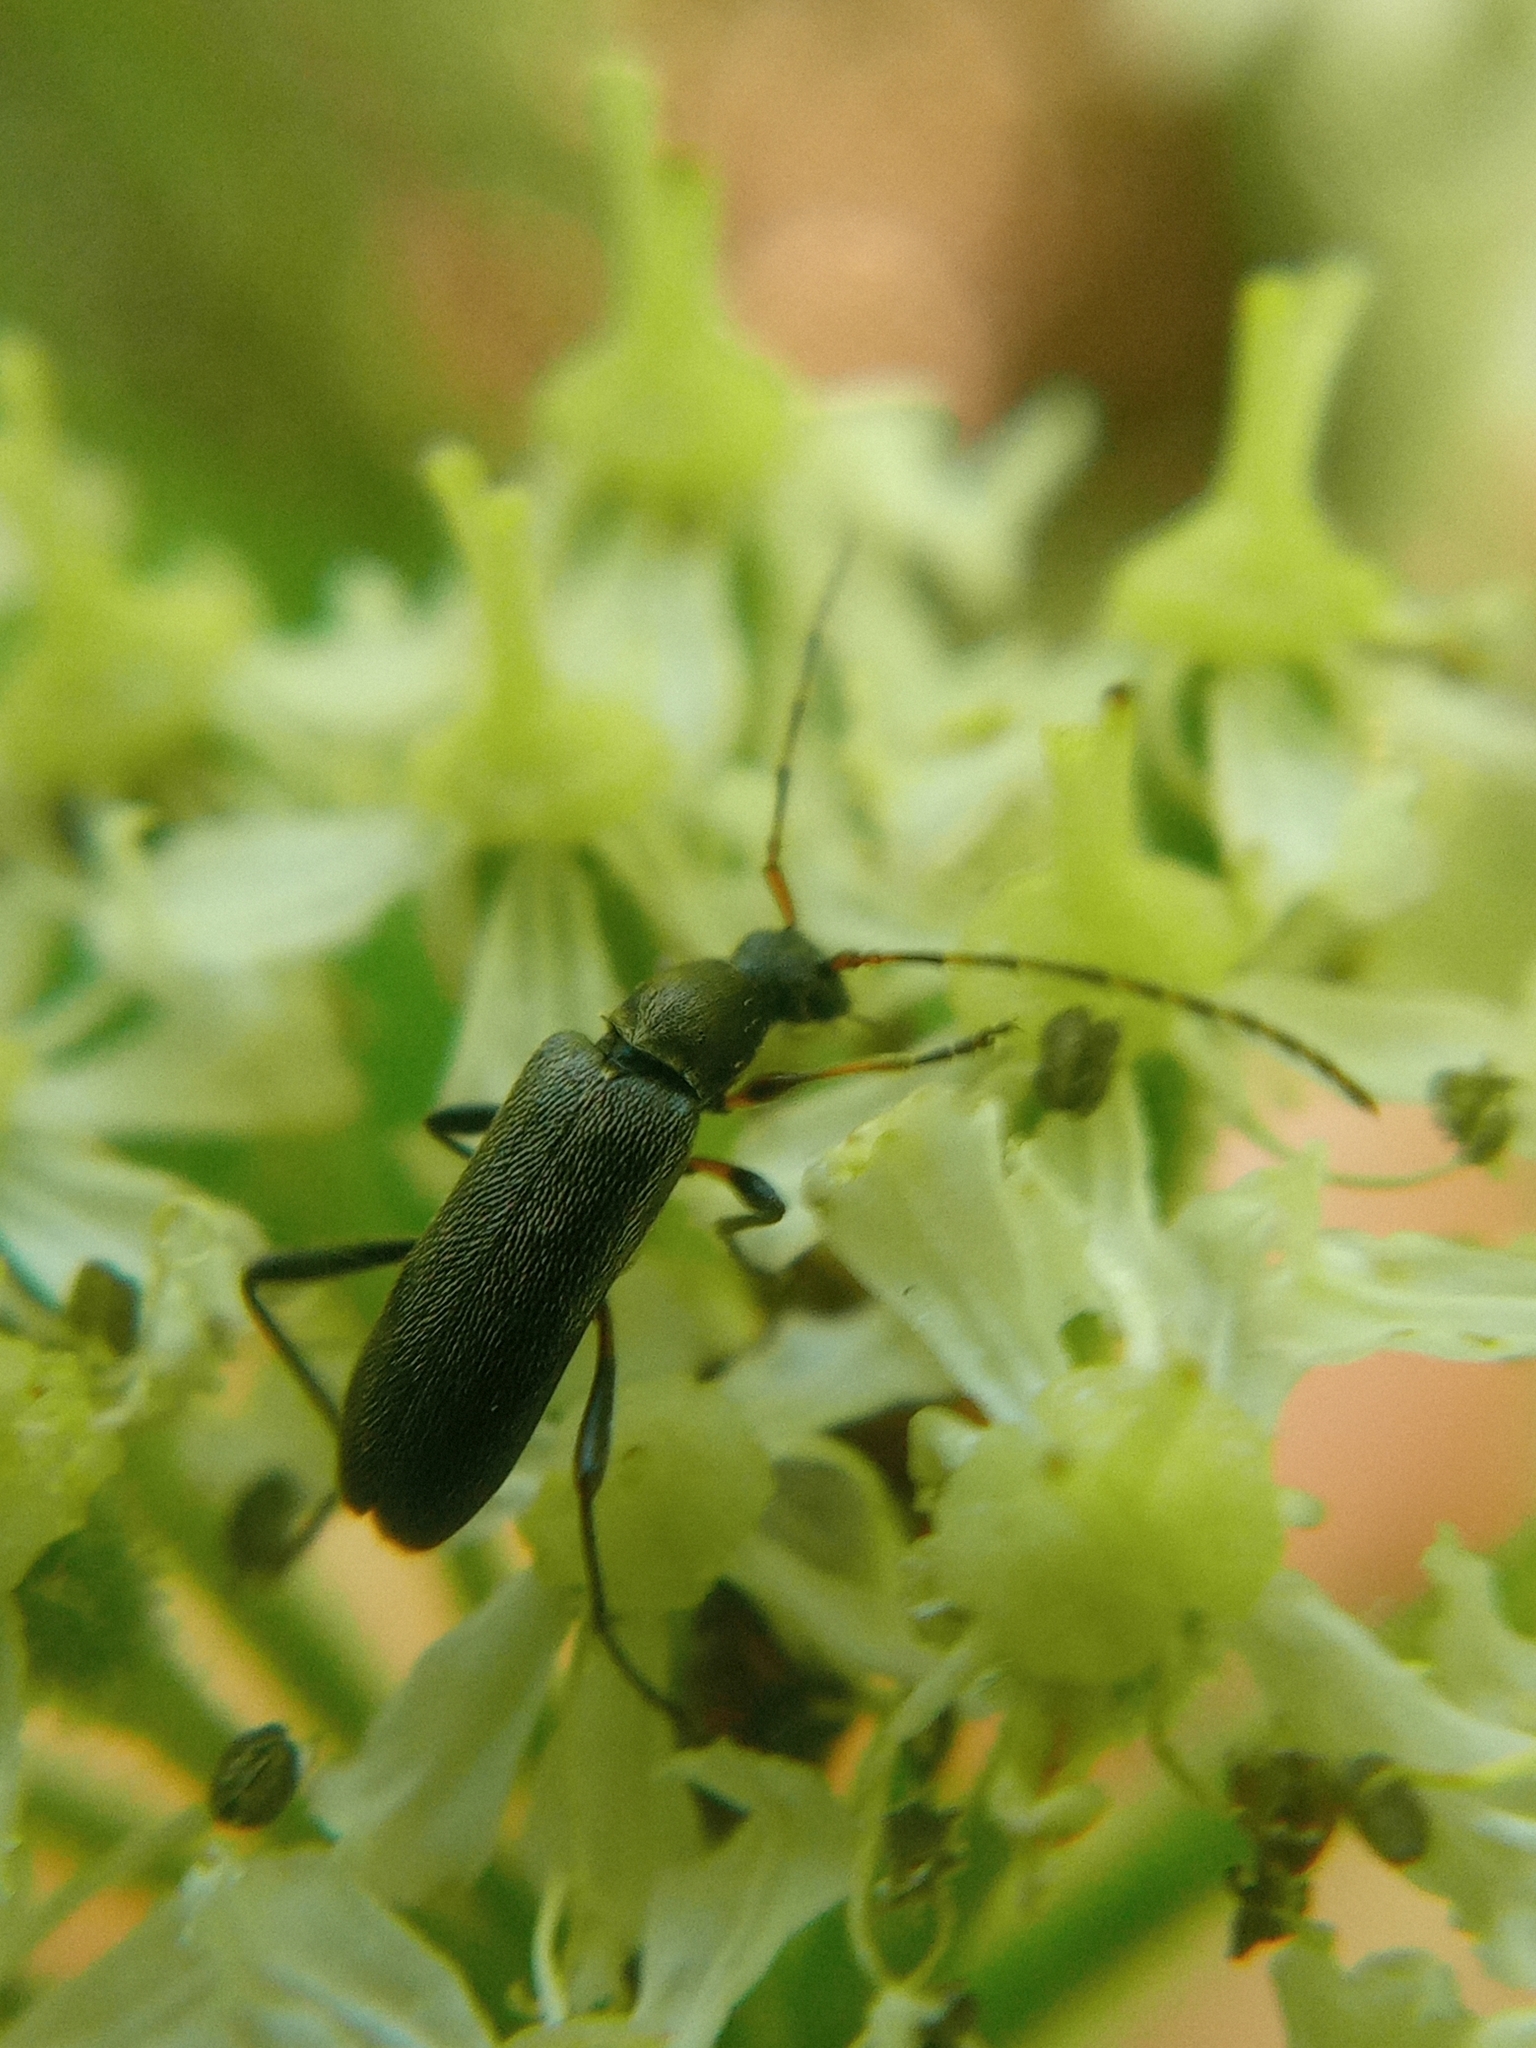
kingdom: Animalia
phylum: Arthropoda
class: Insecta
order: Coleoptera
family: Cerambycidae
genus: Grammoptera
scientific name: Grammoptera ruficornis
